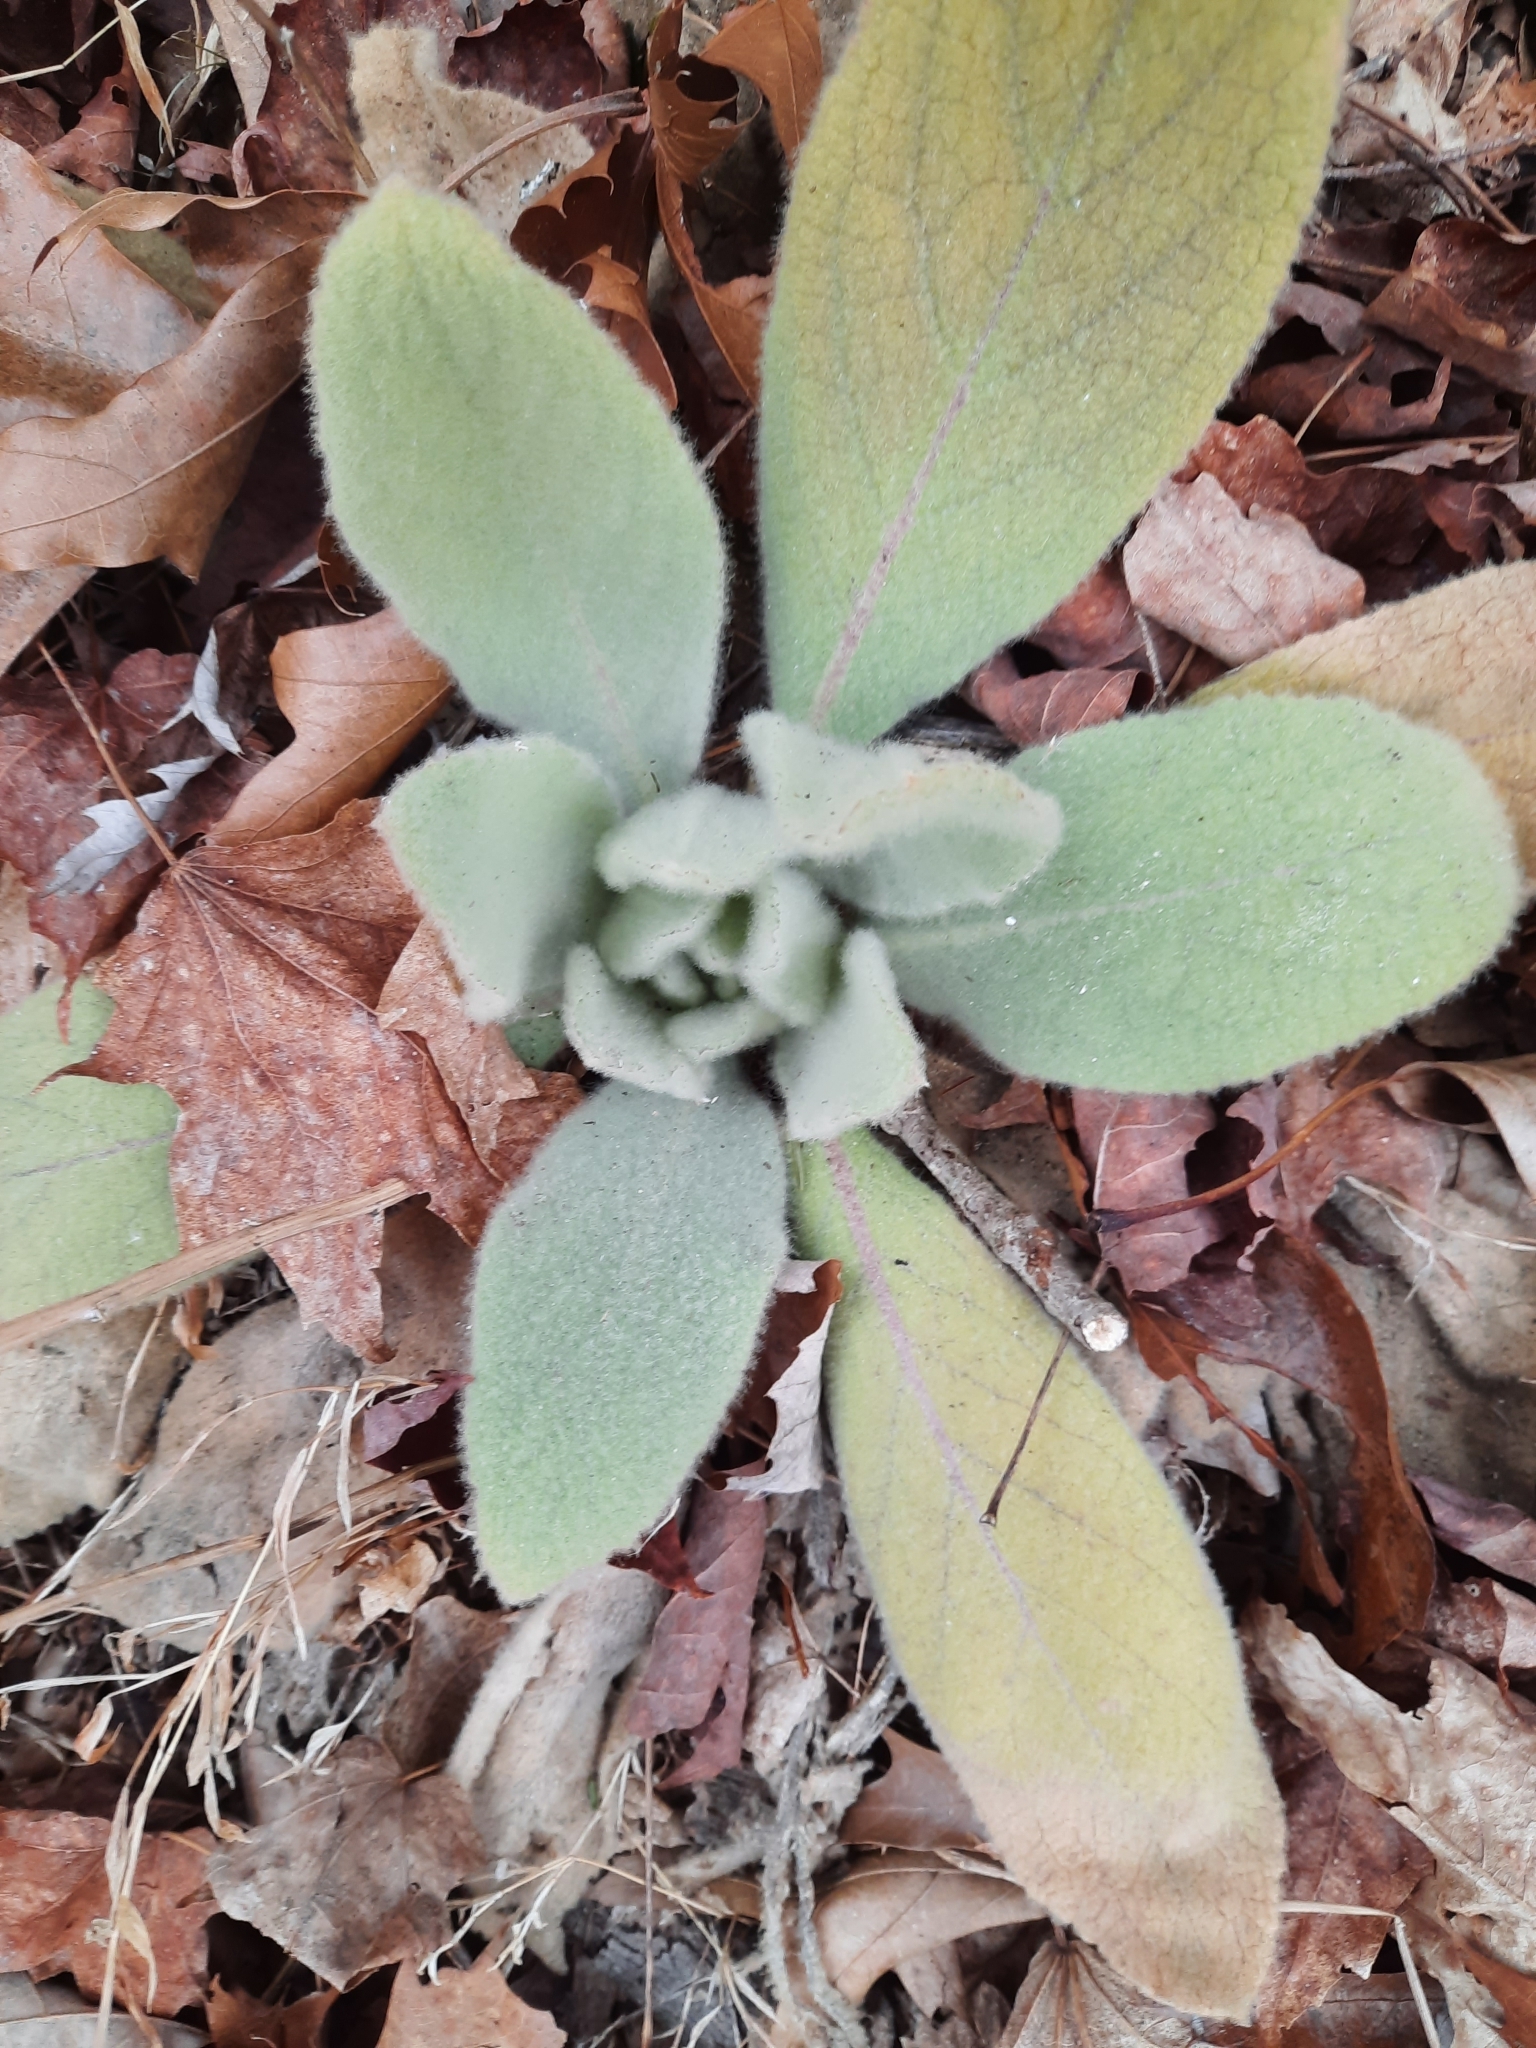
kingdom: Plantae
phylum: Tracheophyta
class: Magnoliopsida
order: Lamiales
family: Scrophulariaceae
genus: Verbascum
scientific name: Verbascum thapsus
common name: Common mullein
